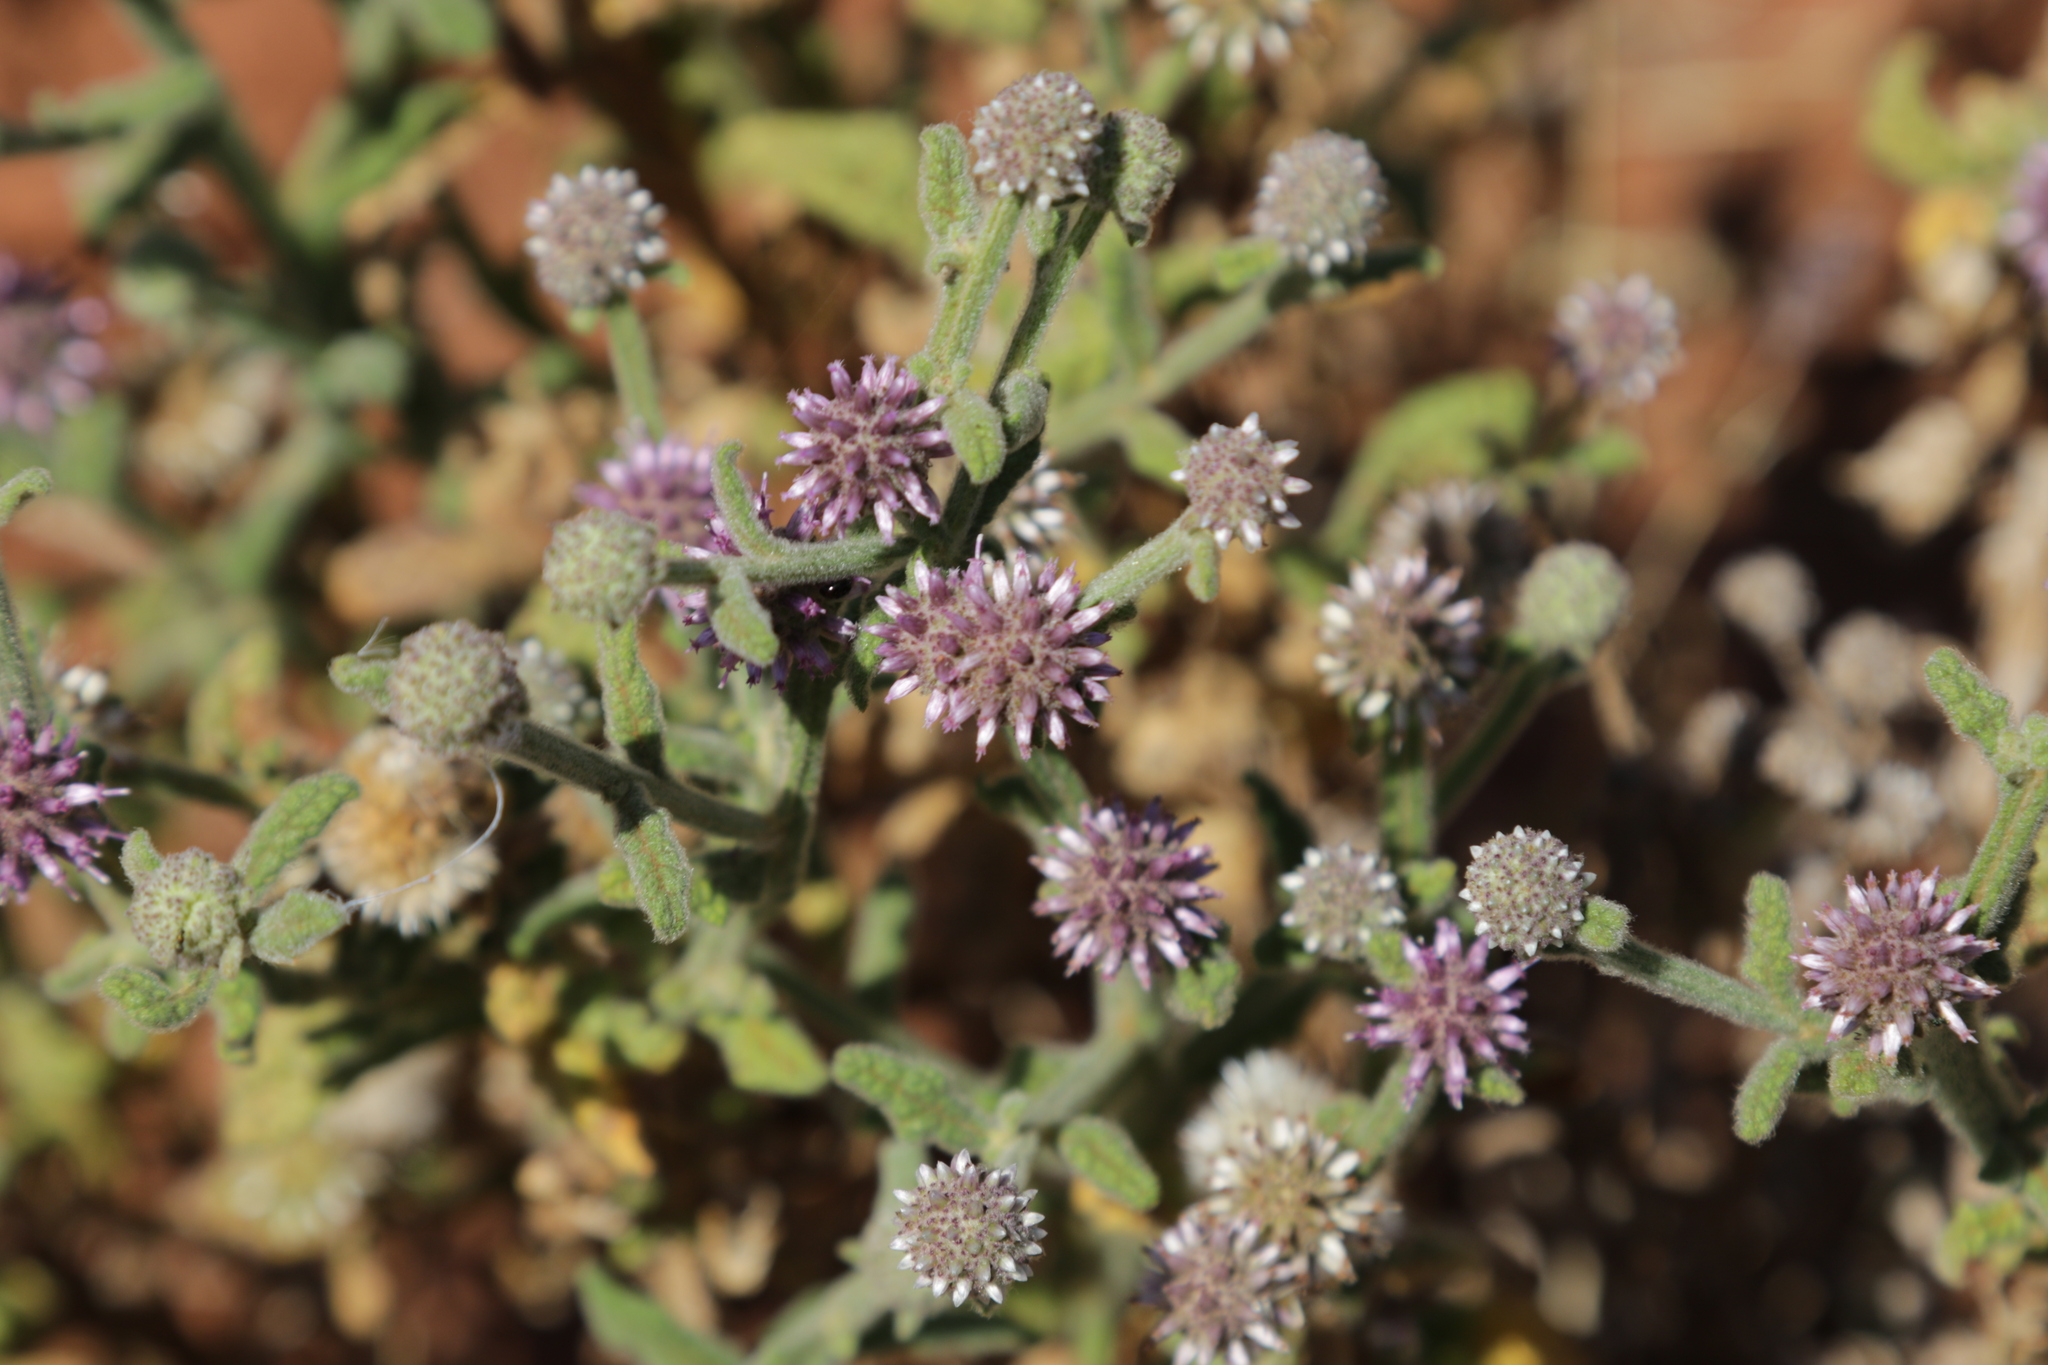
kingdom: Plantae
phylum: Tracheophyta
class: Magnoliopsida
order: Asterales
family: Asteraceae
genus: Pterocaulon
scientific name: Pterocaulon sphacelatum
